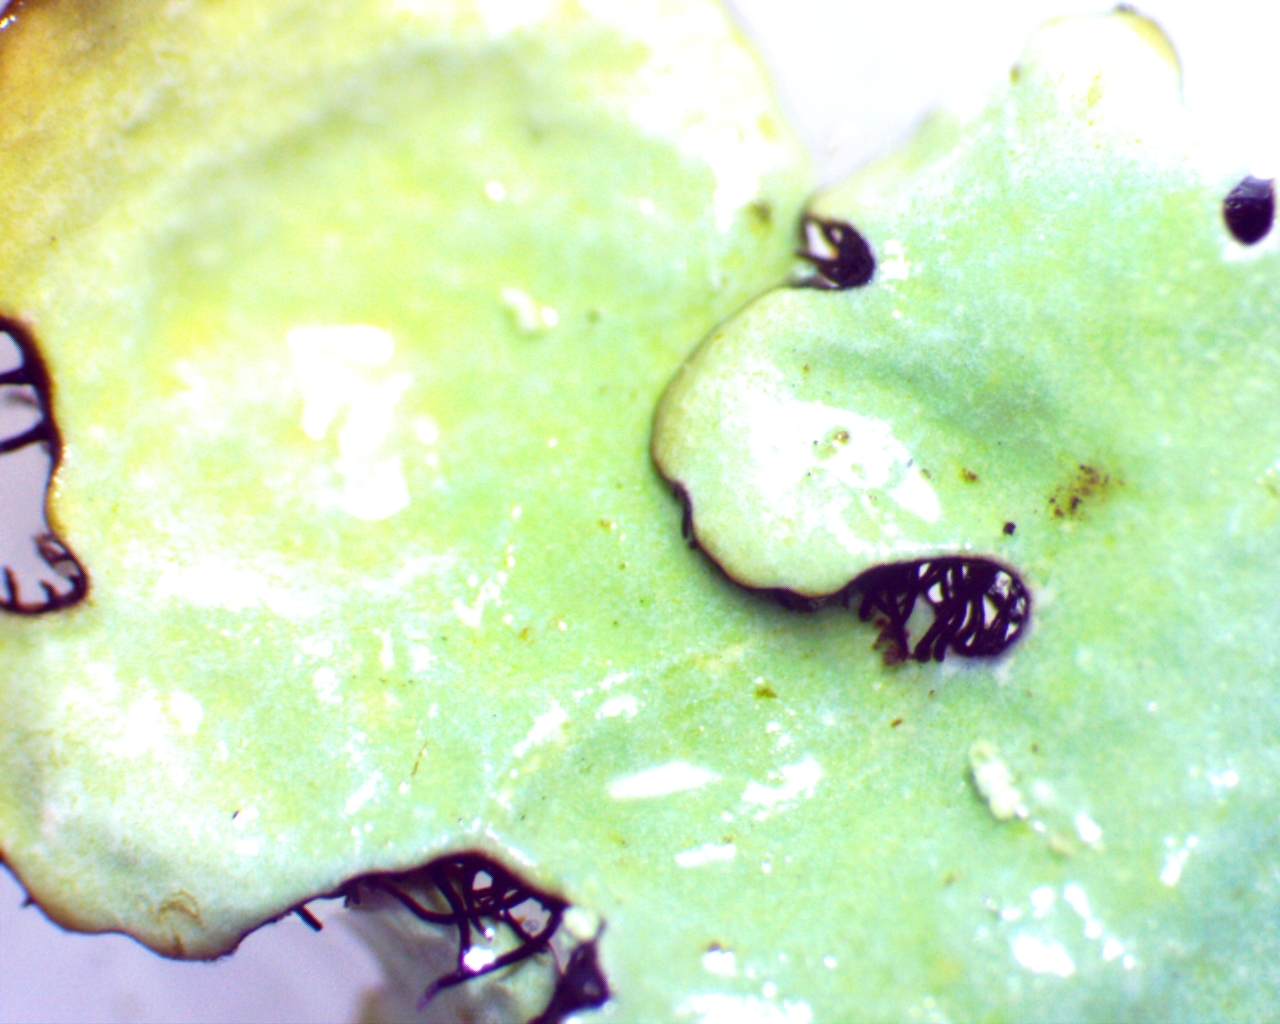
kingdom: Fungi
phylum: Ascomycota
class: Lecanoromycetes
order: Lecanorales
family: Parmeliaceae
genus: Myelochroa
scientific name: Myelochroa aurulenta
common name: Powdery axil-bristle lichen
